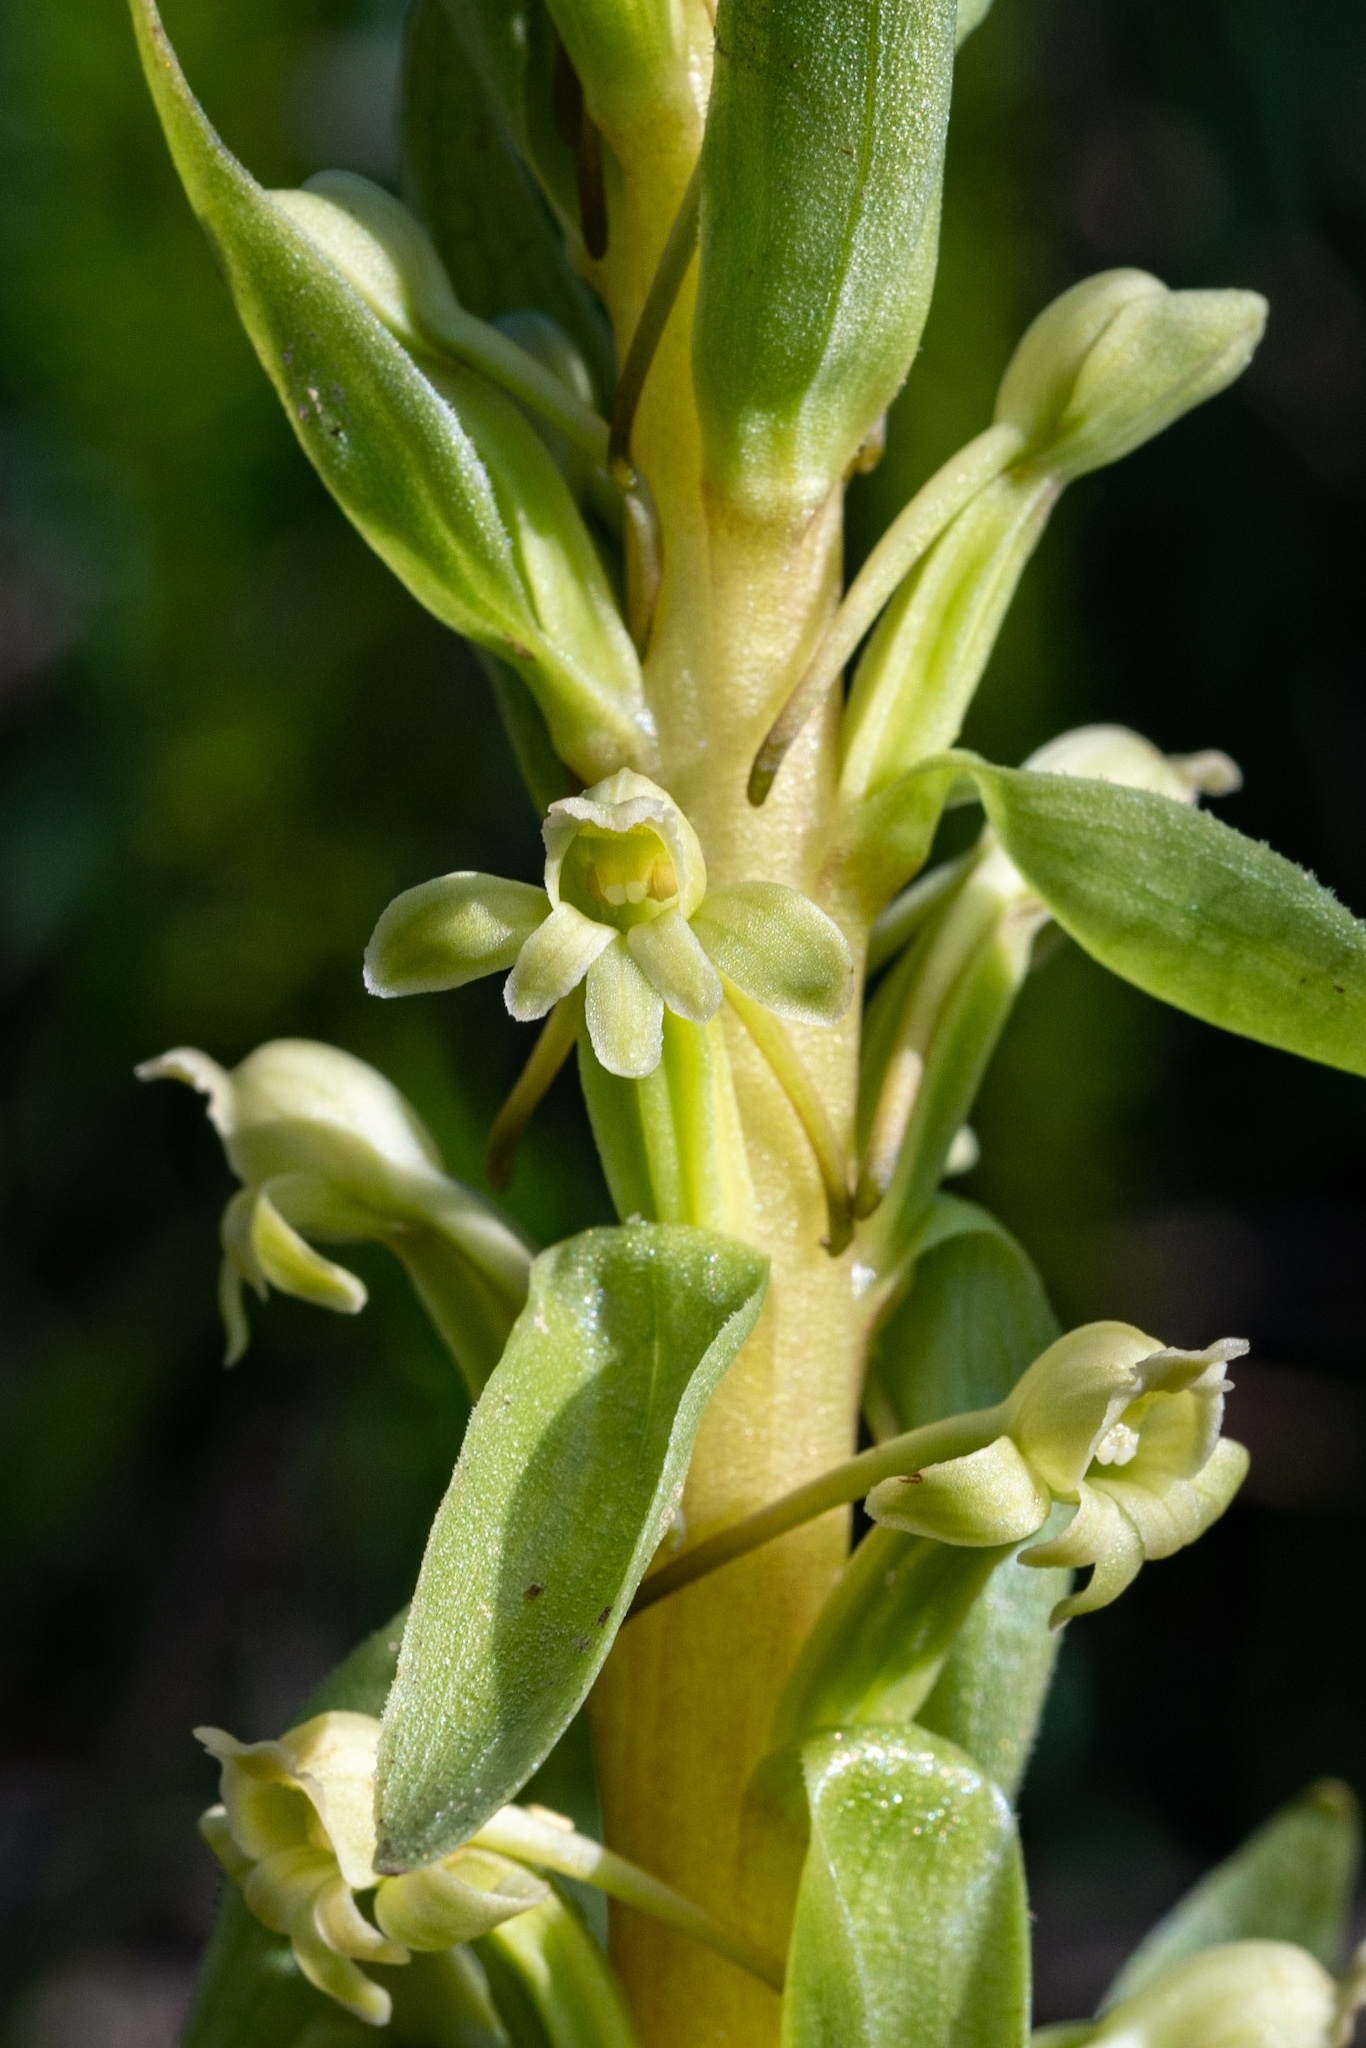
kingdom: Plantae
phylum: Tracheophyta
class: Liliopsida
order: Asparagales
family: Orchidaceae
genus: Satyrium
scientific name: Satyrium humile
